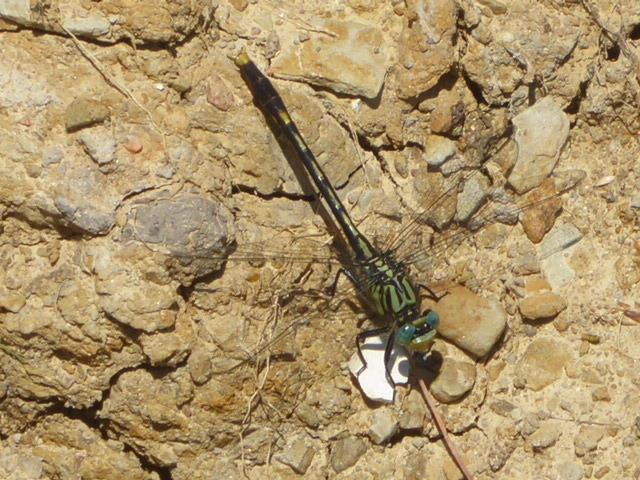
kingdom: Animalia
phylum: Arthropoda
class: Insecta
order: Odonata
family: Gomphidae
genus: Arigomphus
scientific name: Arigomphus villosipes
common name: Unicorn clubtail
